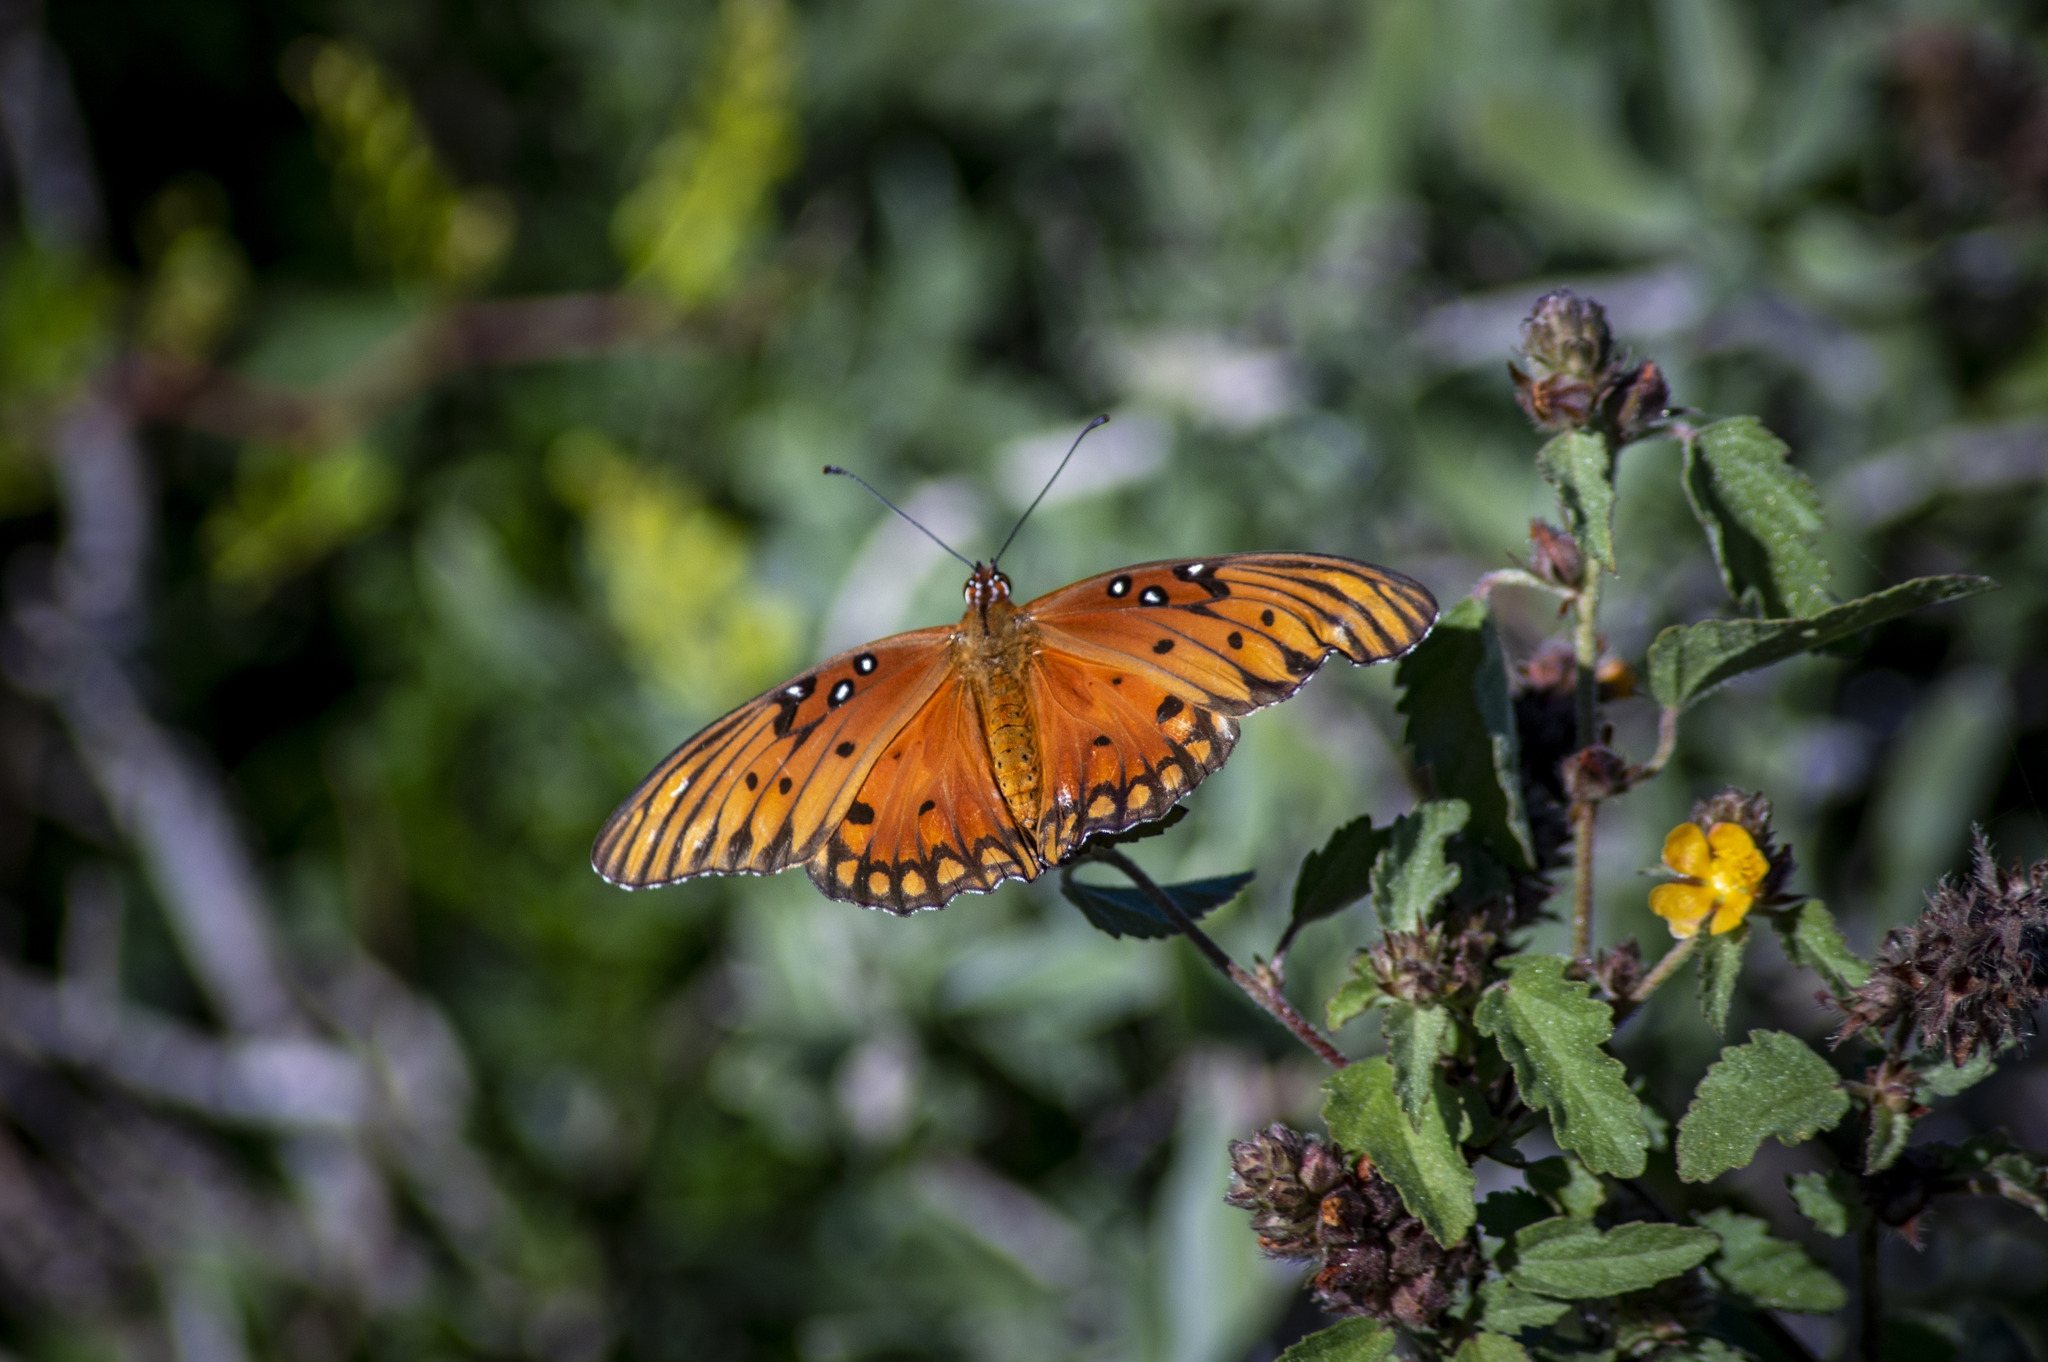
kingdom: Animalia
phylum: Arthropoda
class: Insecta
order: Lepidoptera
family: Nymphalidae
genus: Dione
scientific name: Dione vanillae
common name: Gulf fritillary
